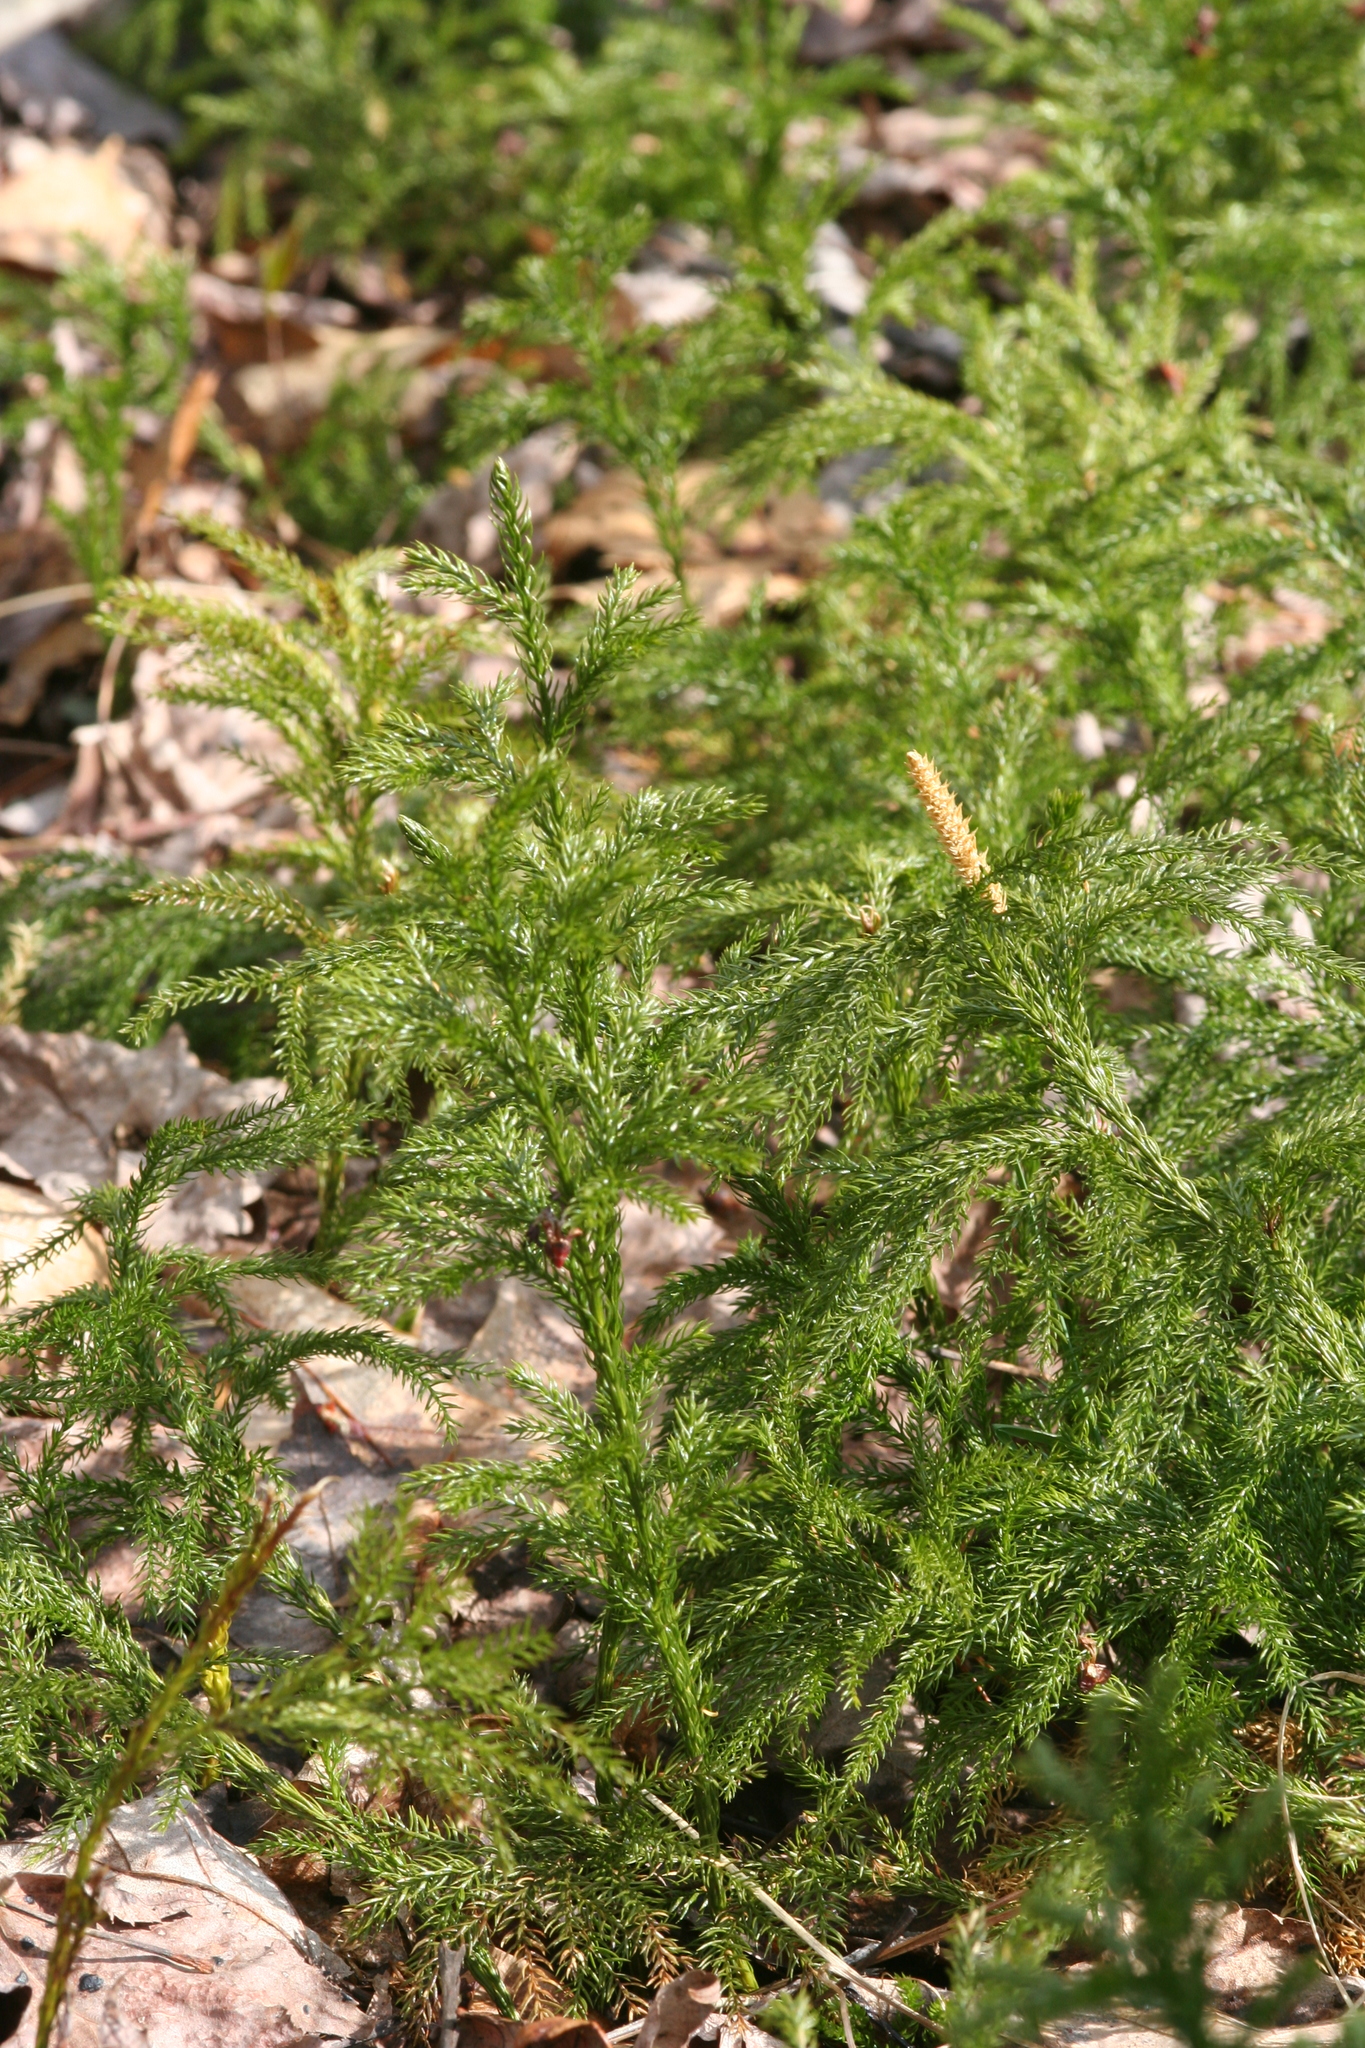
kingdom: Plantae
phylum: Tracheophyta
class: Lycopodiopsida
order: Lycopodiales
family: Lycopodiaceae
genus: Dendrolycopodium
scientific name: Dendrolycopodium obscurum
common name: Common ground-pine
